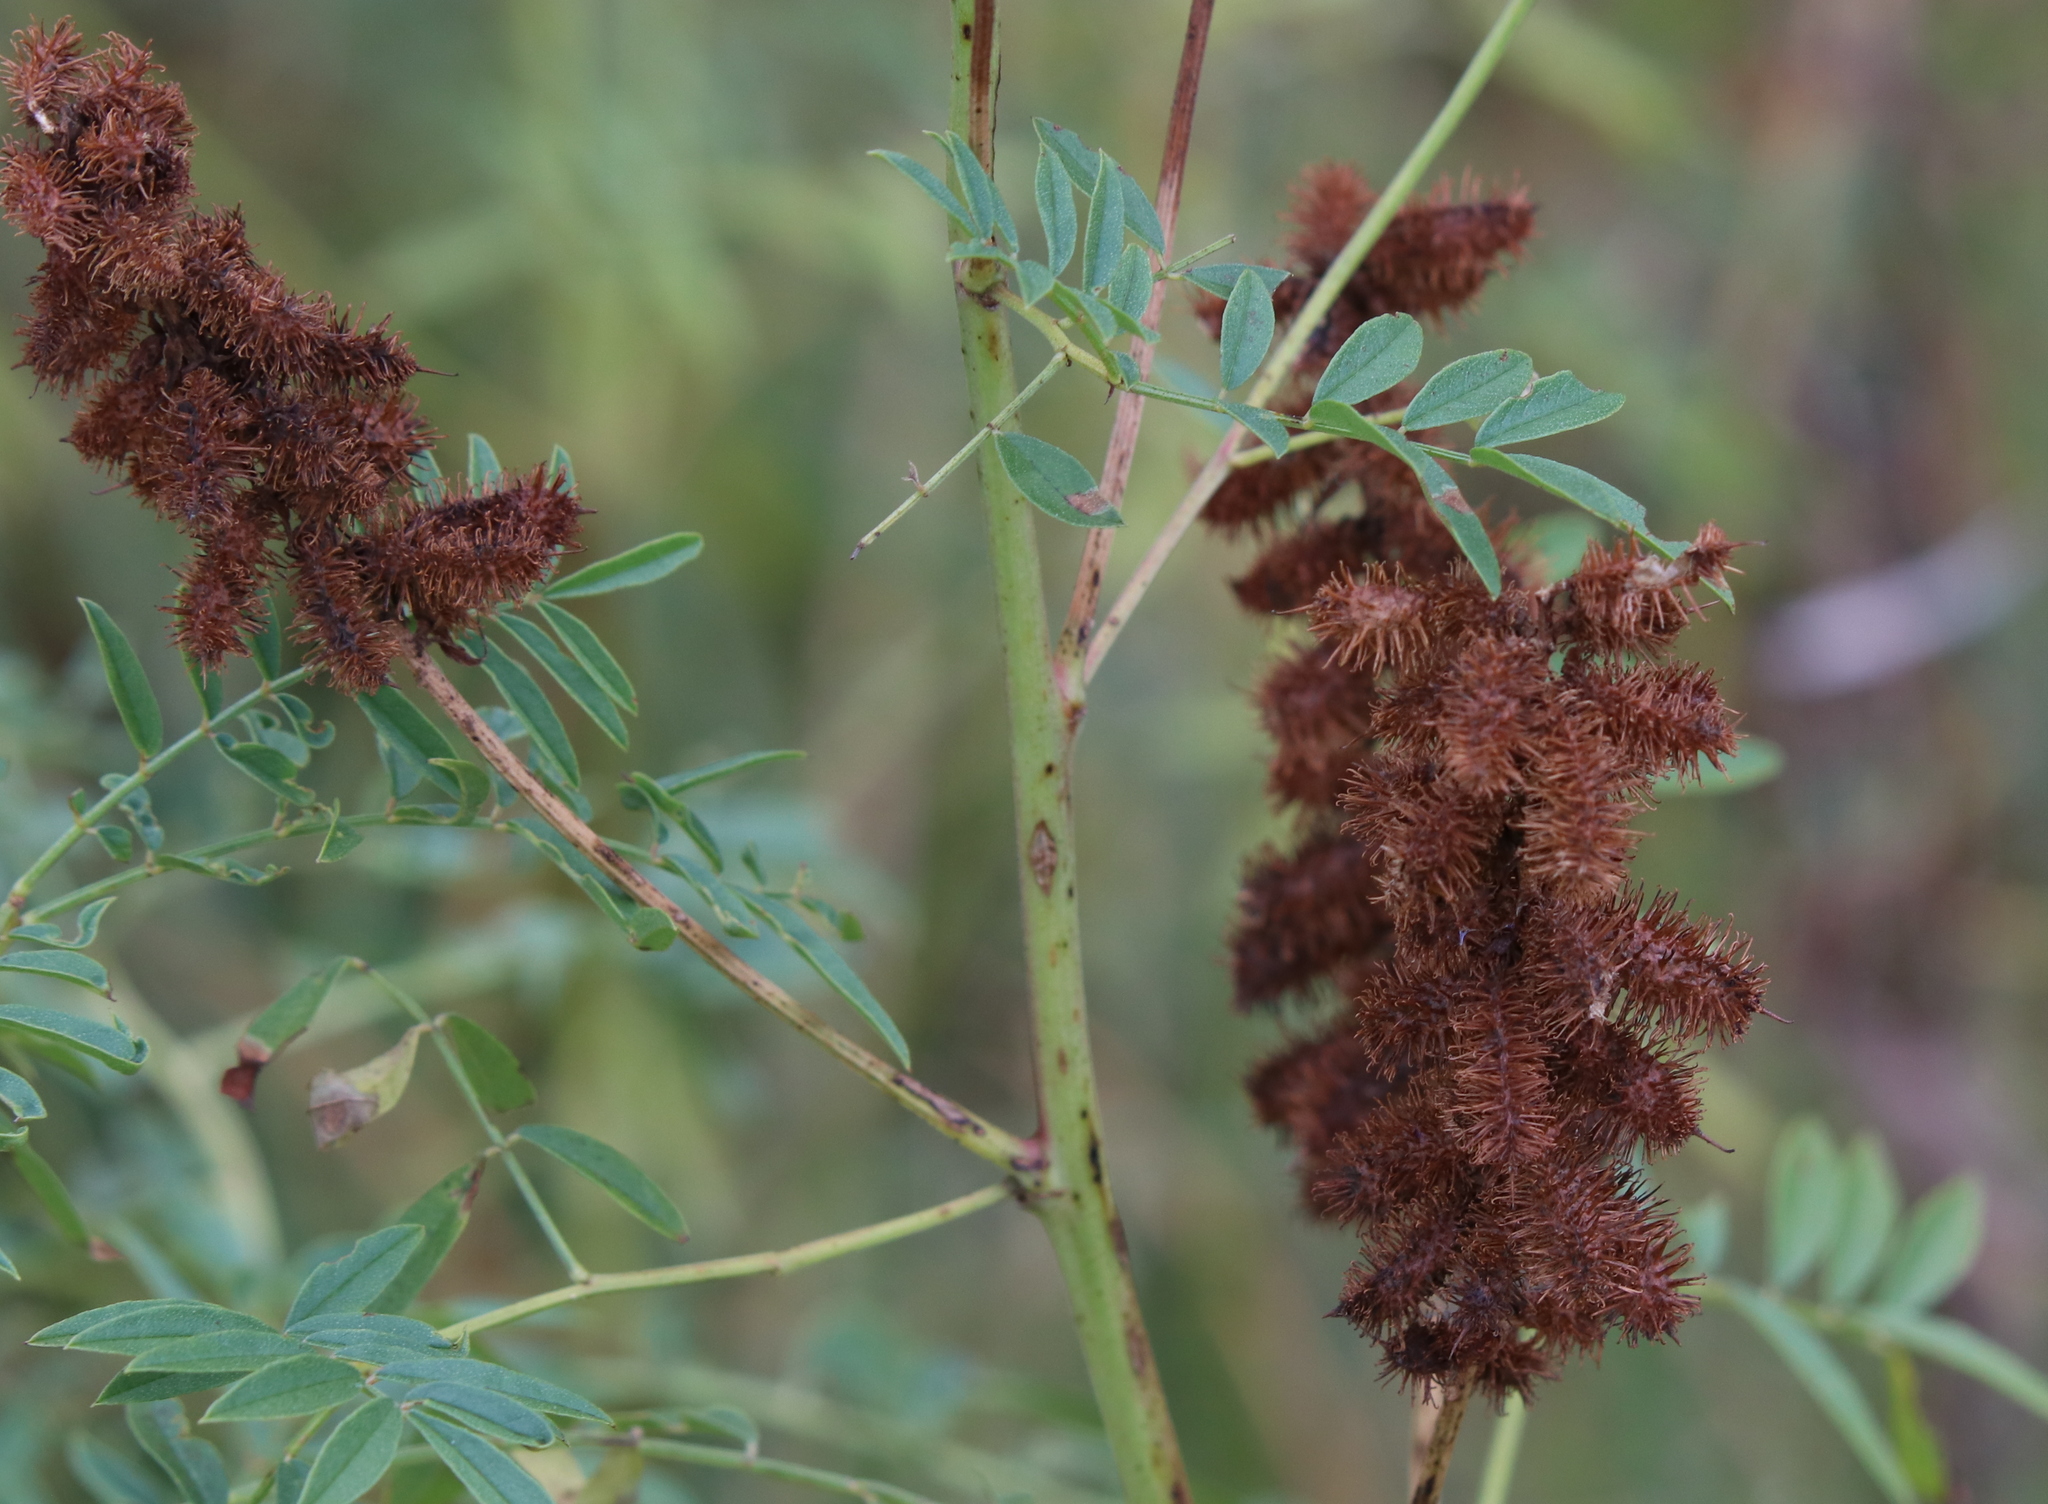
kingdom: Plantae
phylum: Tracheophyta
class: Magnoliopsida
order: Fabales
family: Fabaceae
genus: Glycyrrhiza
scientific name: Glycyrrhiza lepidota
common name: American liquorice
